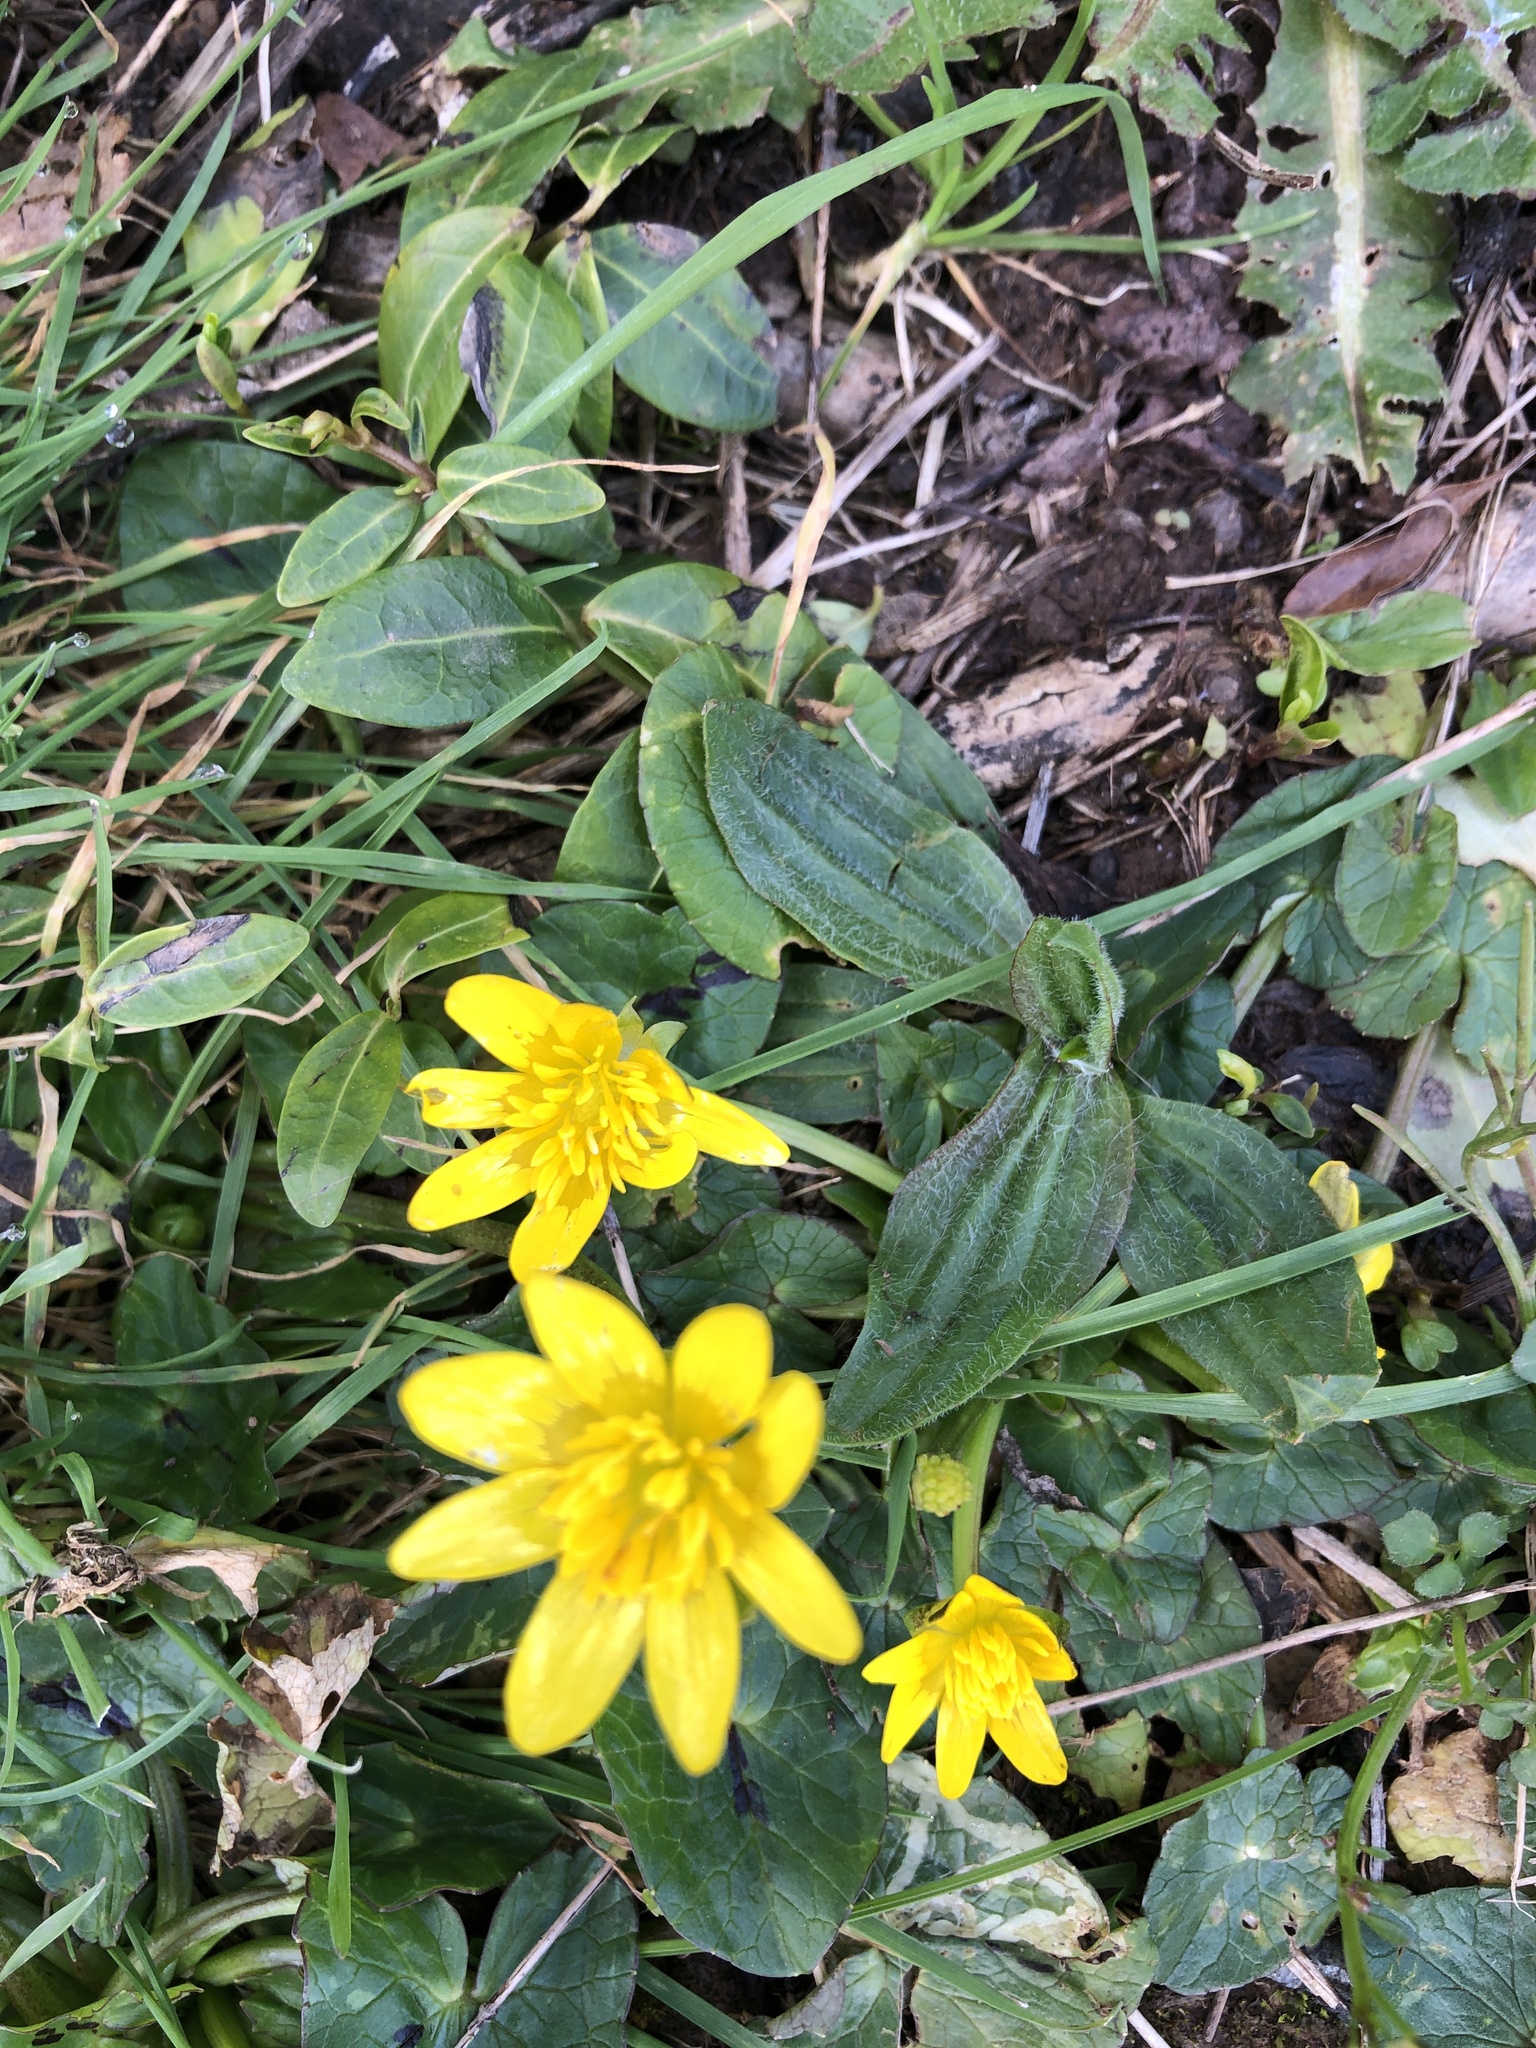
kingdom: Plantae
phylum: Tracheophyta
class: Magnoliopsida
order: Ranunculales
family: Ranunculaceae
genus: Ficaria
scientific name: Ficaria verna
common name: Lesser celandine
